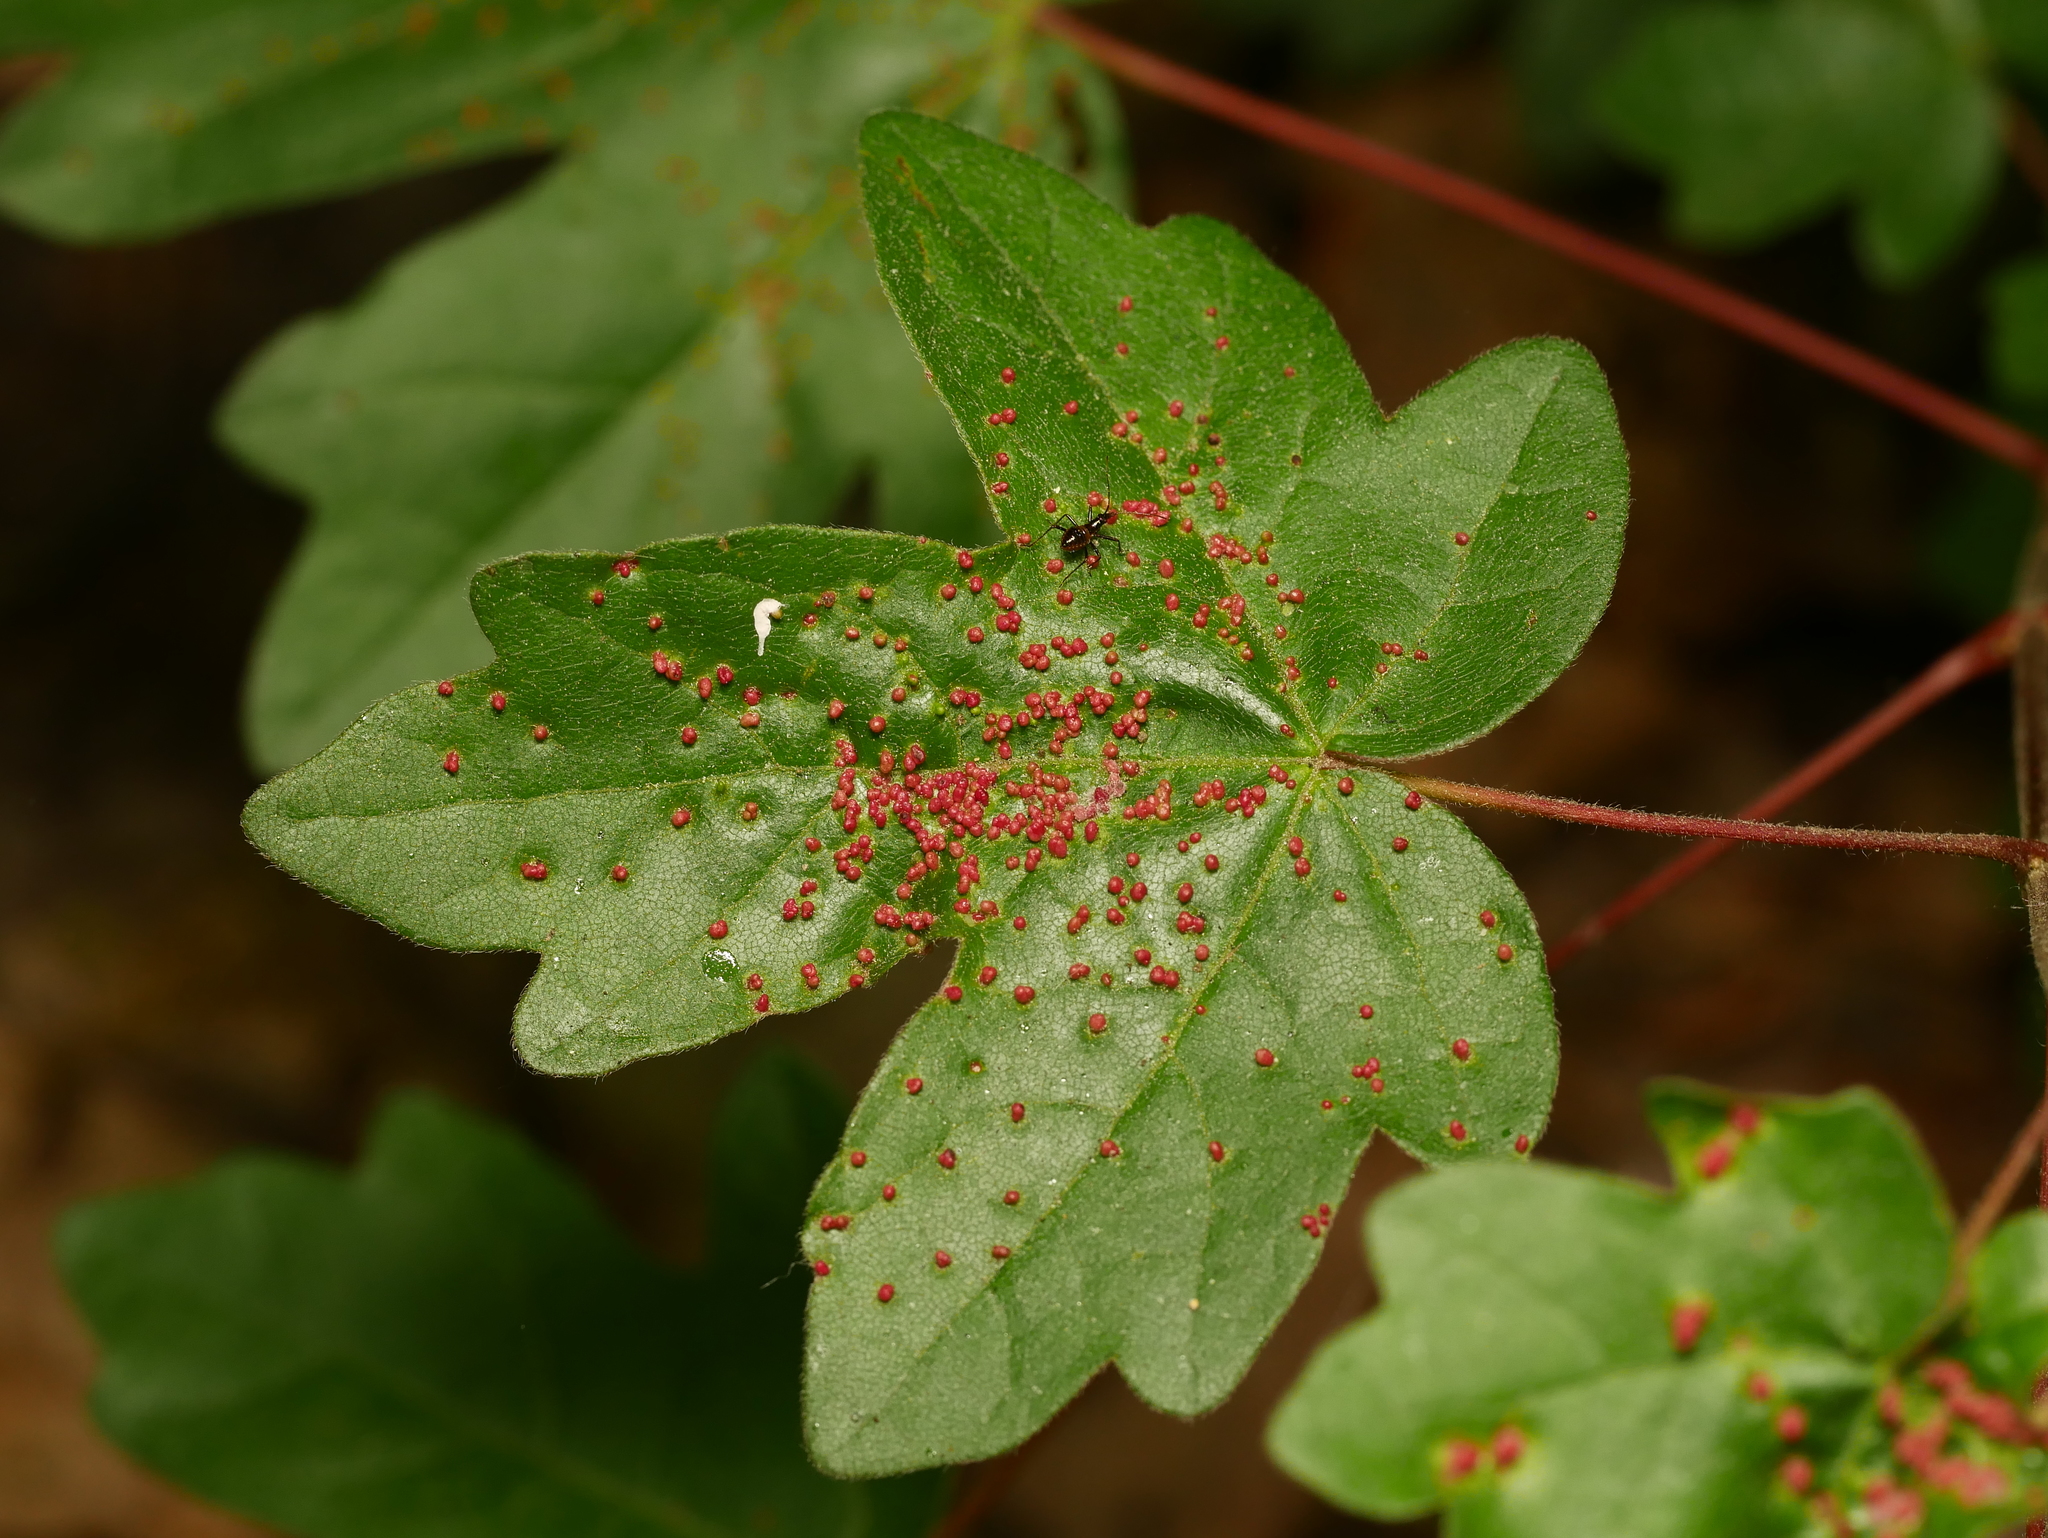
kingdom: Plantae
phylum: Tracheophyta
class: Magnoliopsida
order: Sapindales
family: Sapindaceae
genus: Acer
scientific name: Acer campestre
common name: Field maple
